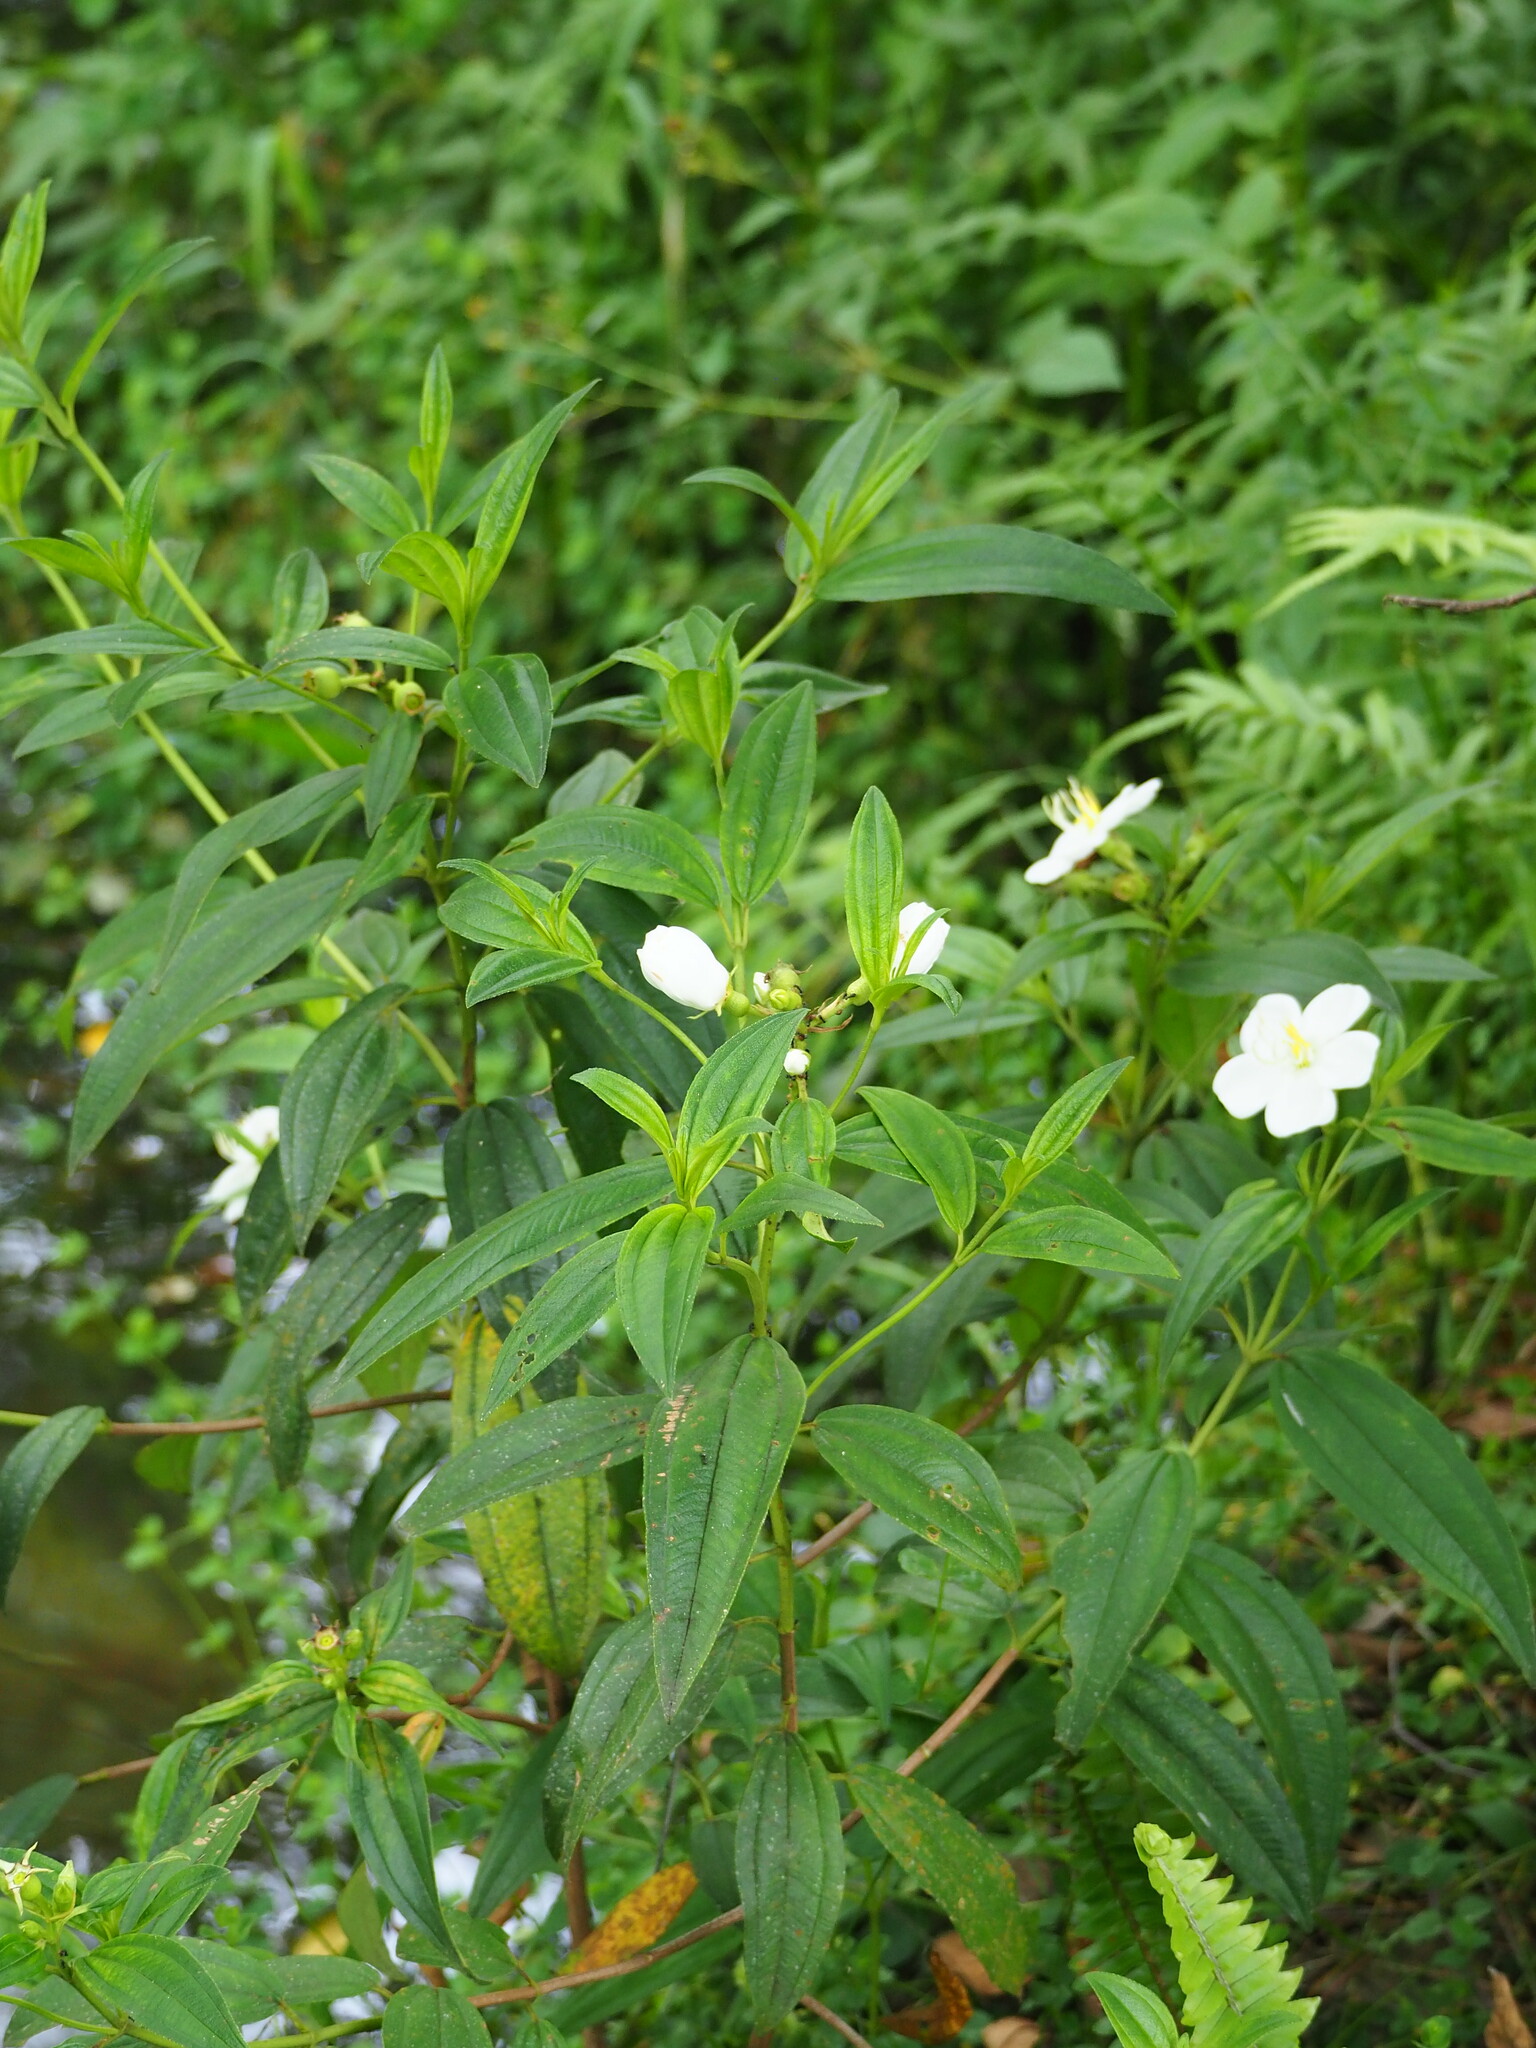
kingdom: Plantae
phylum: Tracheophyta
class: Magnoliopsida
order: Myrtales
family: Melastomataceae
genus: Melastoma
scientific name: Melastoma malabathricum
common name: Indian-rhododendron
